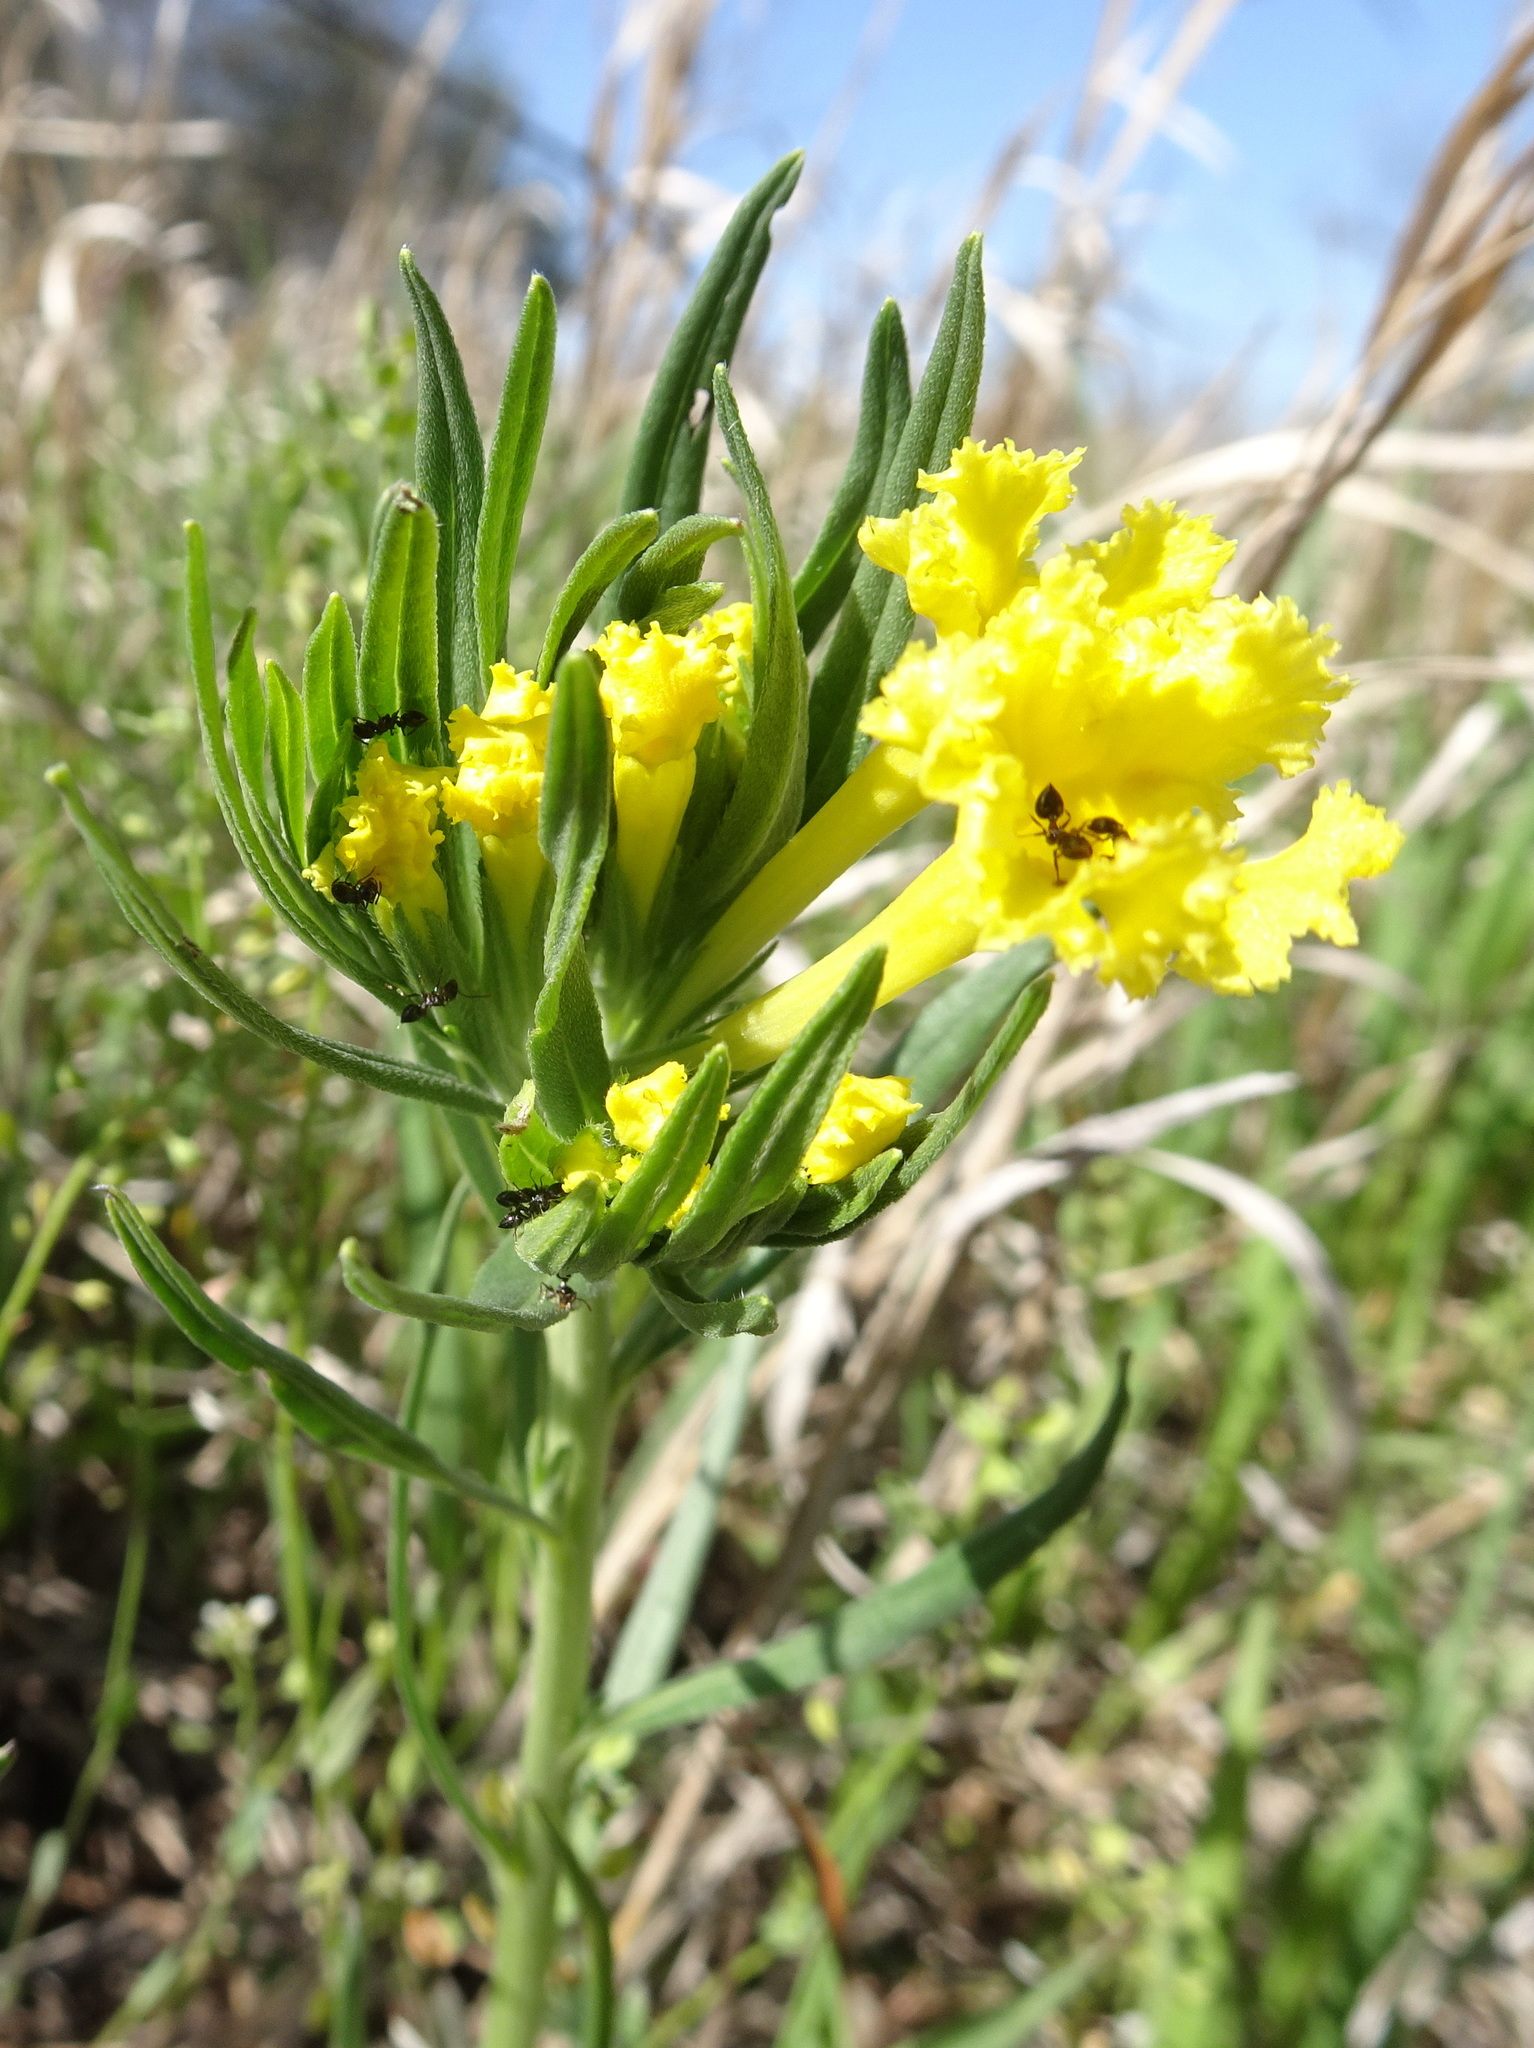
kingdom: Plantae
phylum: Tracheophyta
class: Magnoliopsida
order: Boraginales
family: Boraginaceae
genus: Lithospermum
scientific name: Lithospermum incisum
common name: Fringed gromwell
